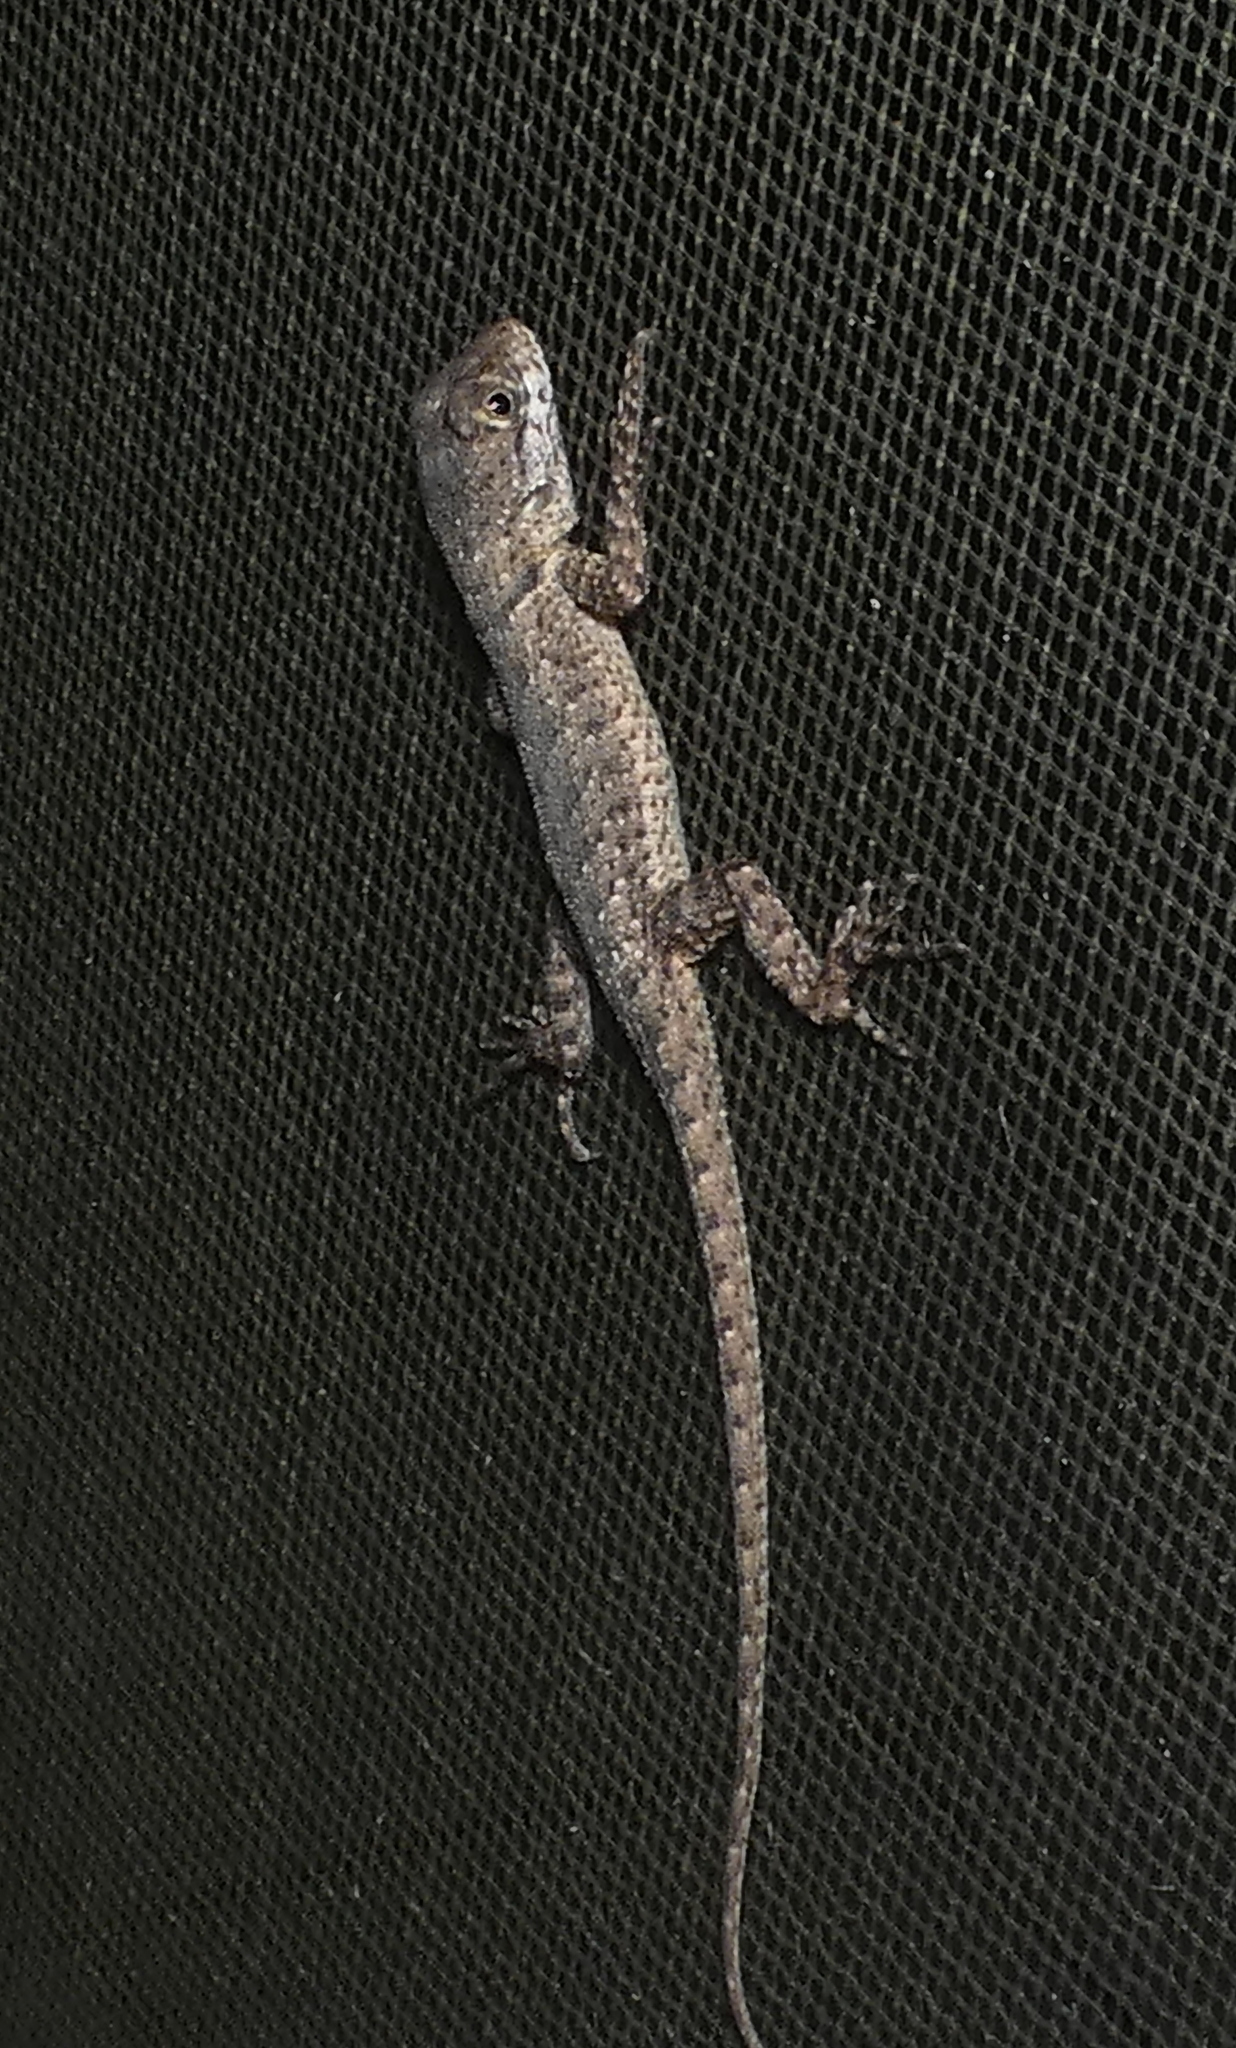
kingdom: Animalia
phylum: Chordata
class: Squamata
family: Tropiduridae
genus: Tropidurus
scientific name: Tropidurus hispidus
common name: Peters' lava lizard
